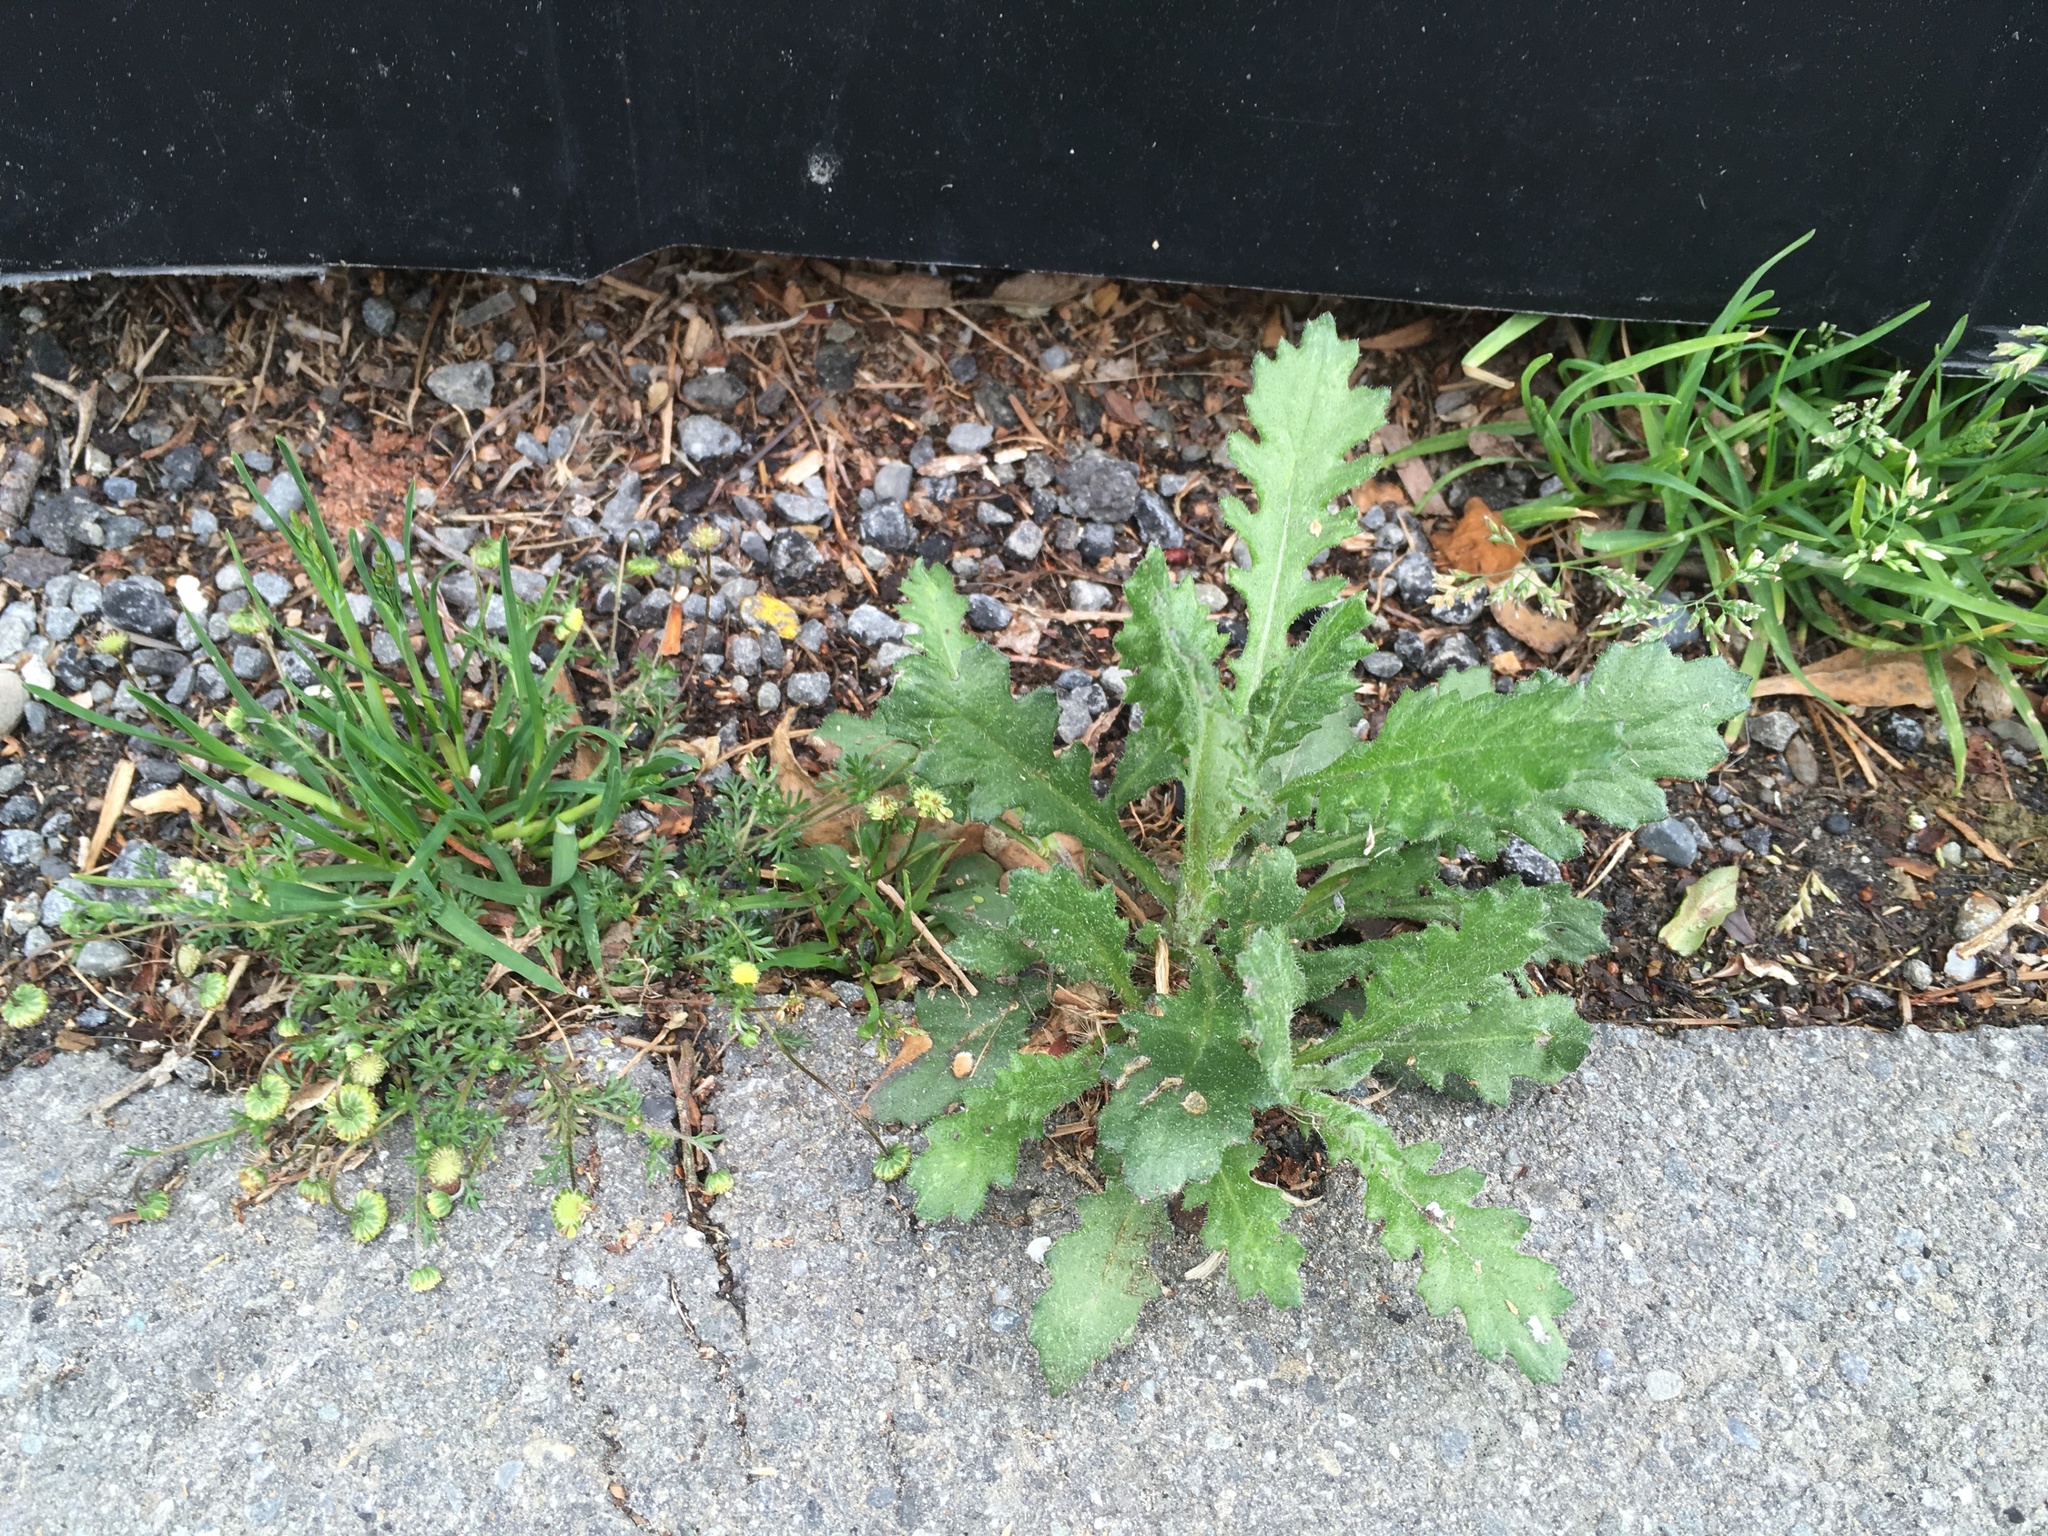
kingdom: Plantae
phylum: Tracheophyta
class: Magnoliopsida
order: Asterales
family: Asteraceae
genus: Senecio
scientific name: Senecio glomeratus
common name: Cutleaf burnweed
